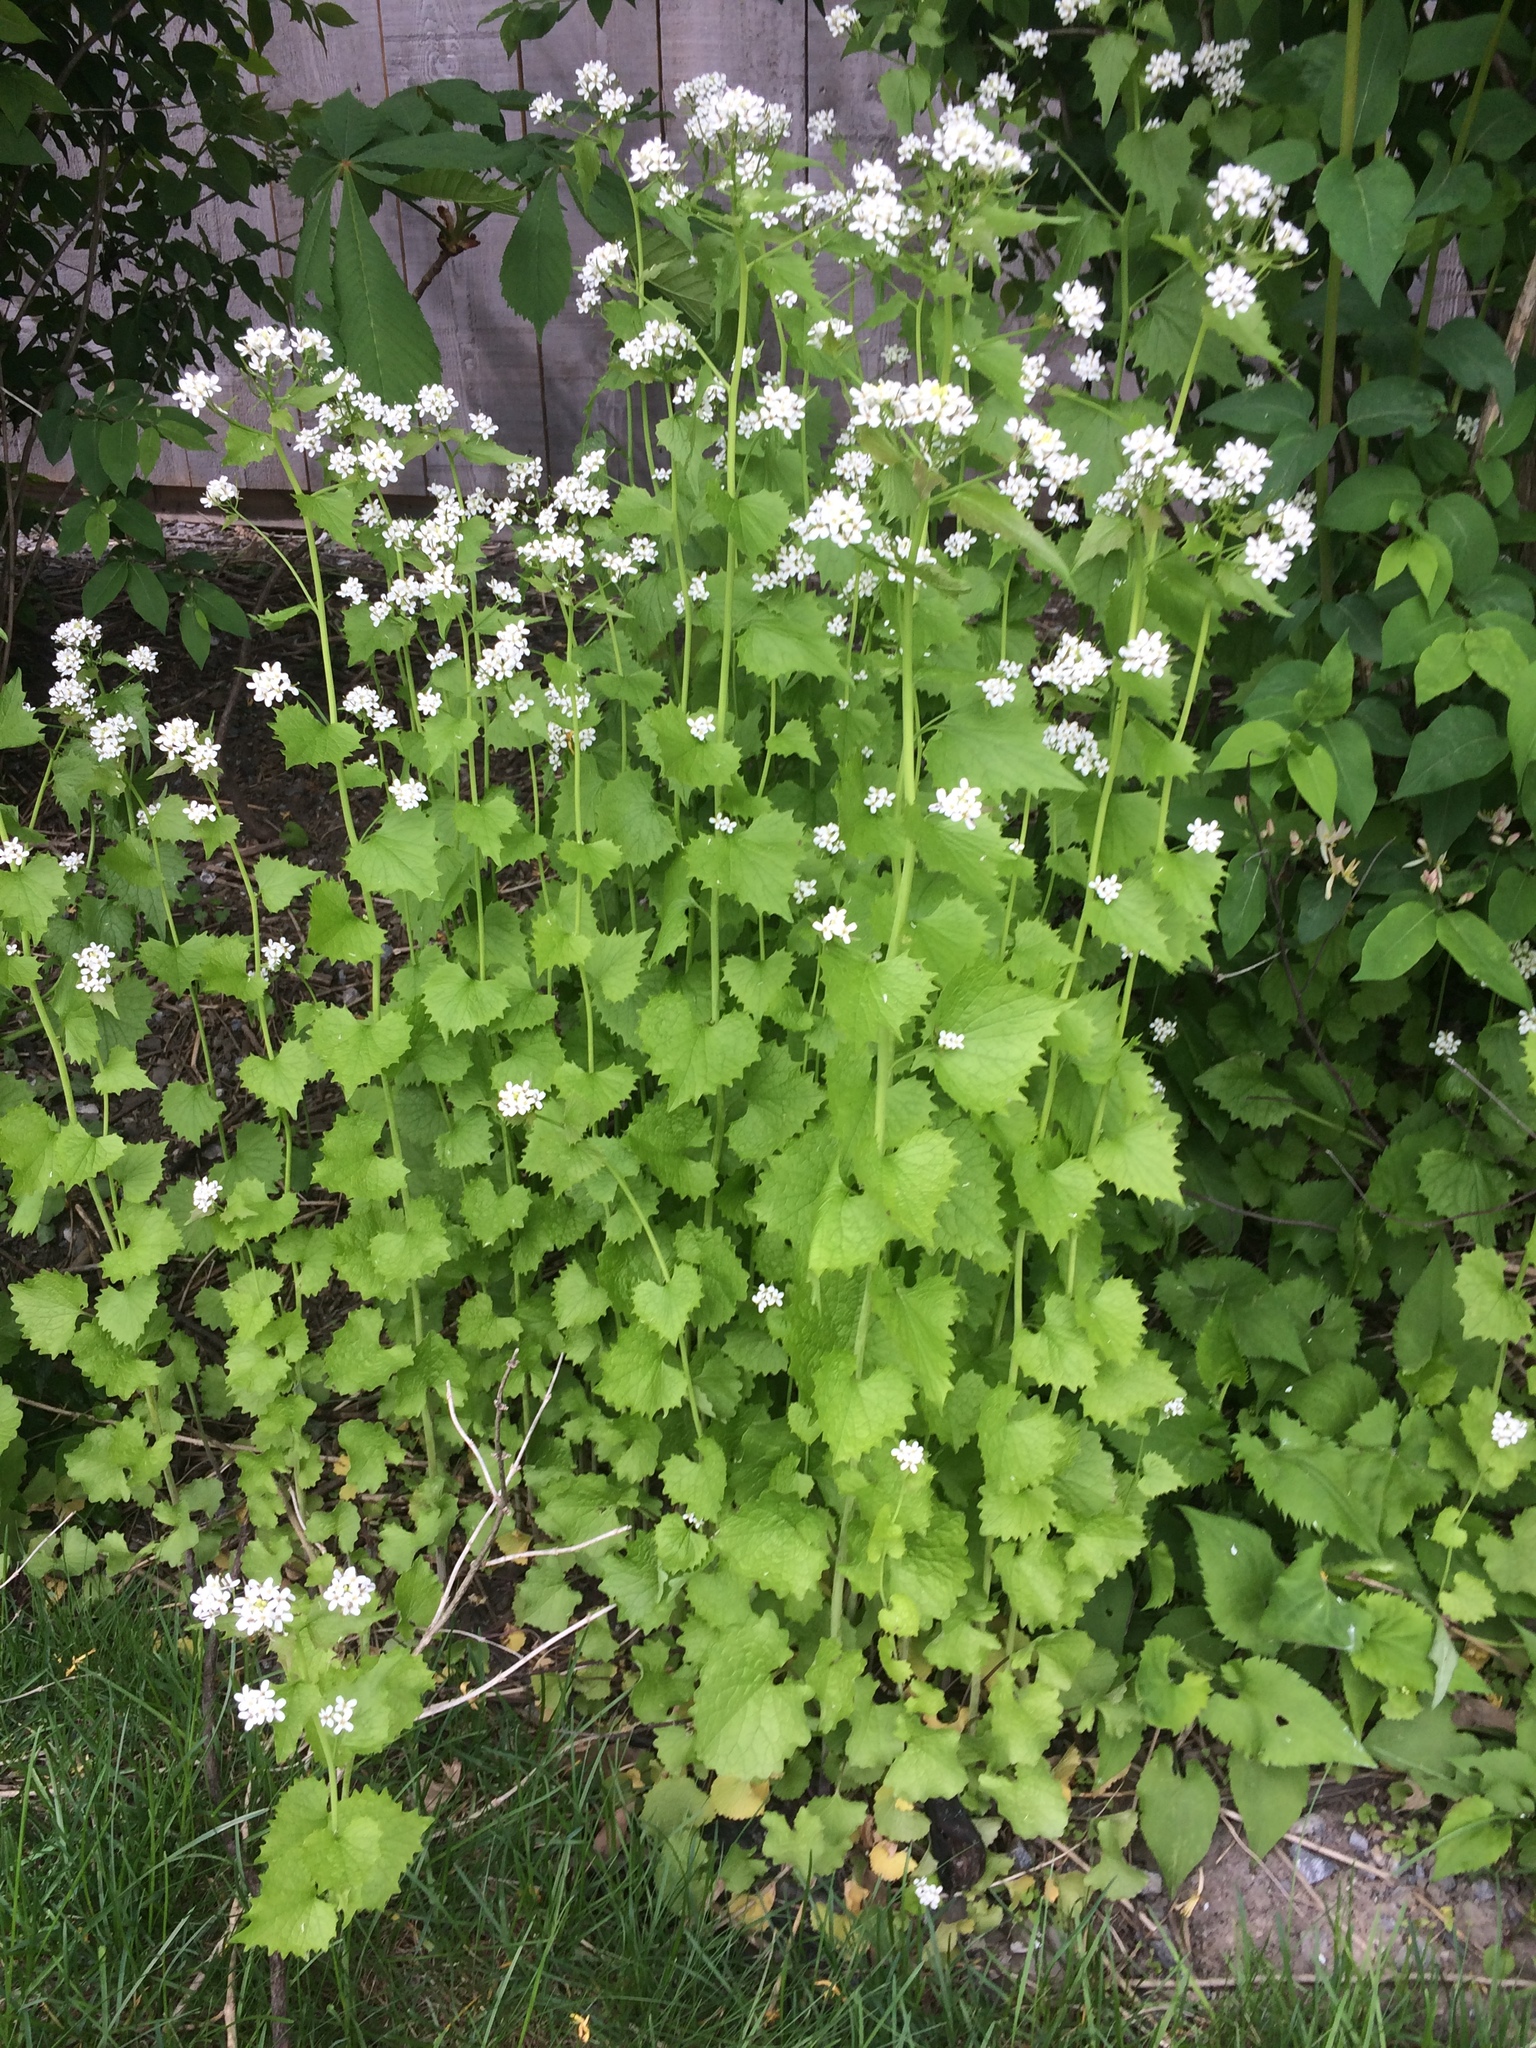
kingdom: Plantae
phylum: Tracheophyta
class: Magnoliopsida
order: Brassicales
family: Brassicaceae
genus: Alliaria
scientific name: Alliaria petiolata
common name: Garlic mustard
